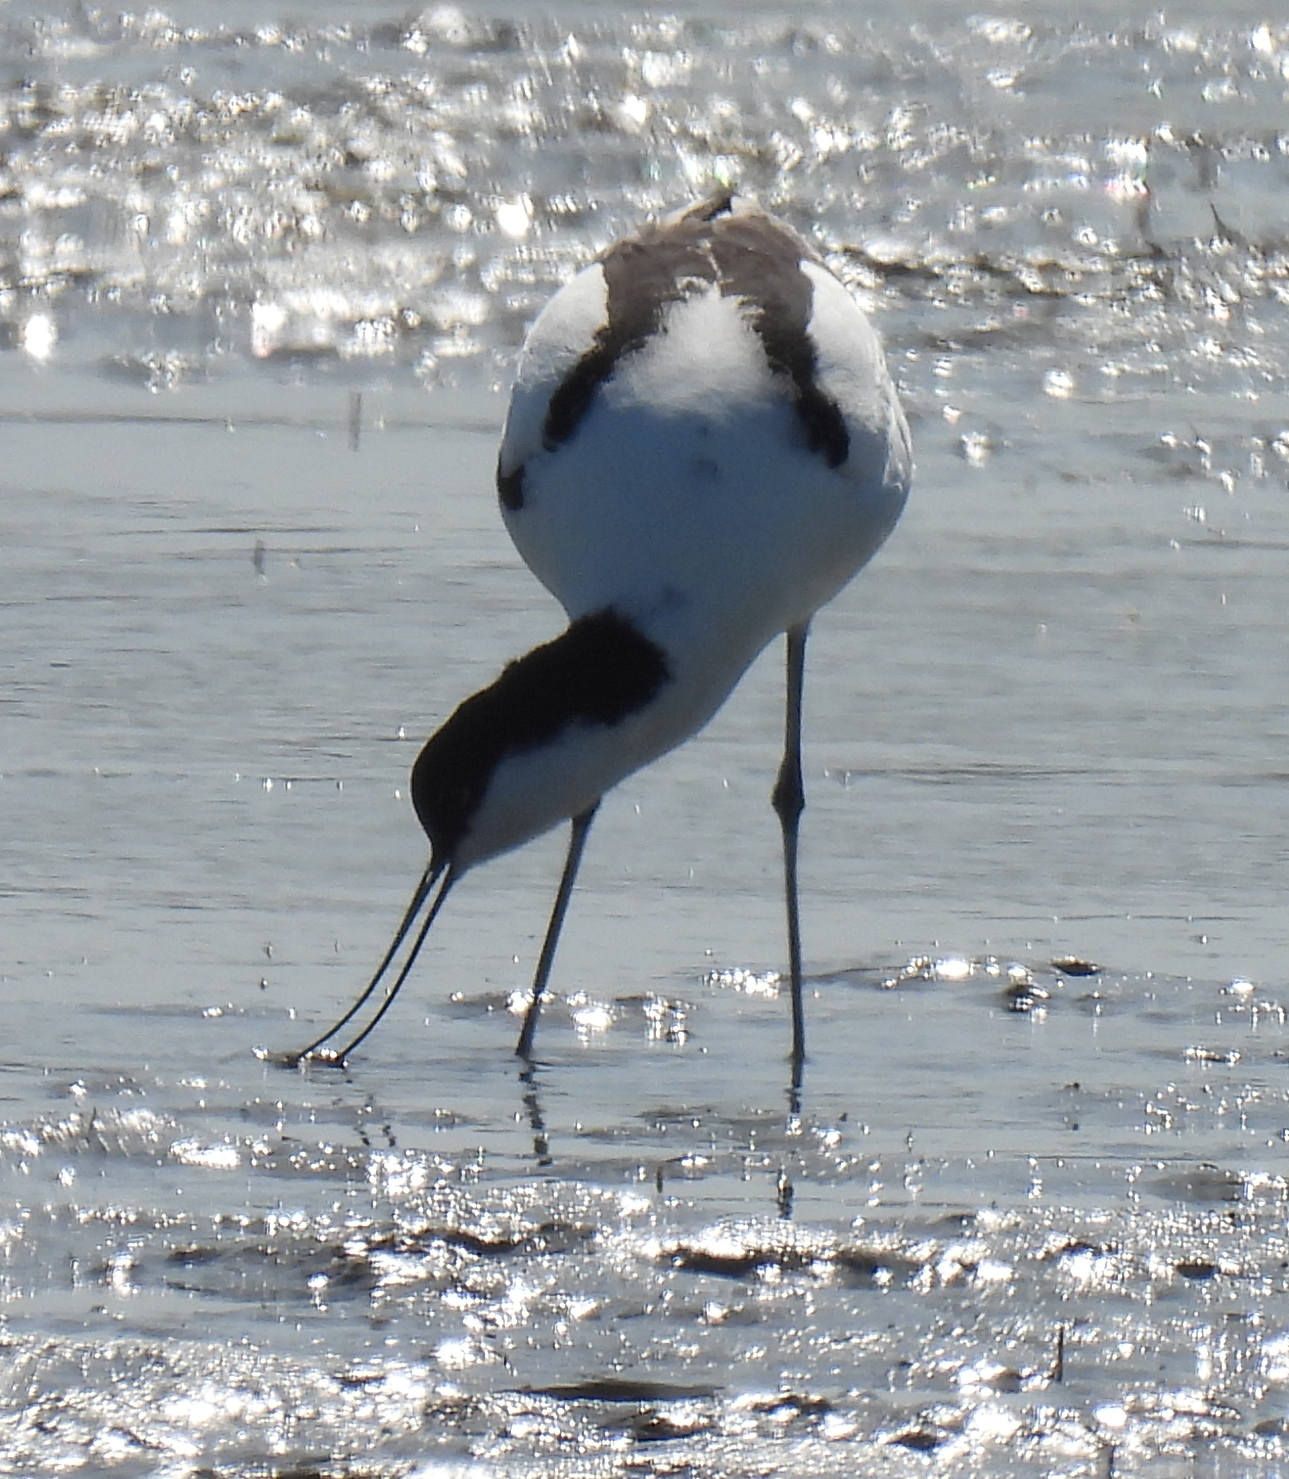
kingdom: Animalia
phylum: Chordata
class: Aves
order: Charadriiformes
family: Recurvirostridae
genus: Recurvirostra
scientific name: Recurvirostra avosetta
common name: Pied avocet
